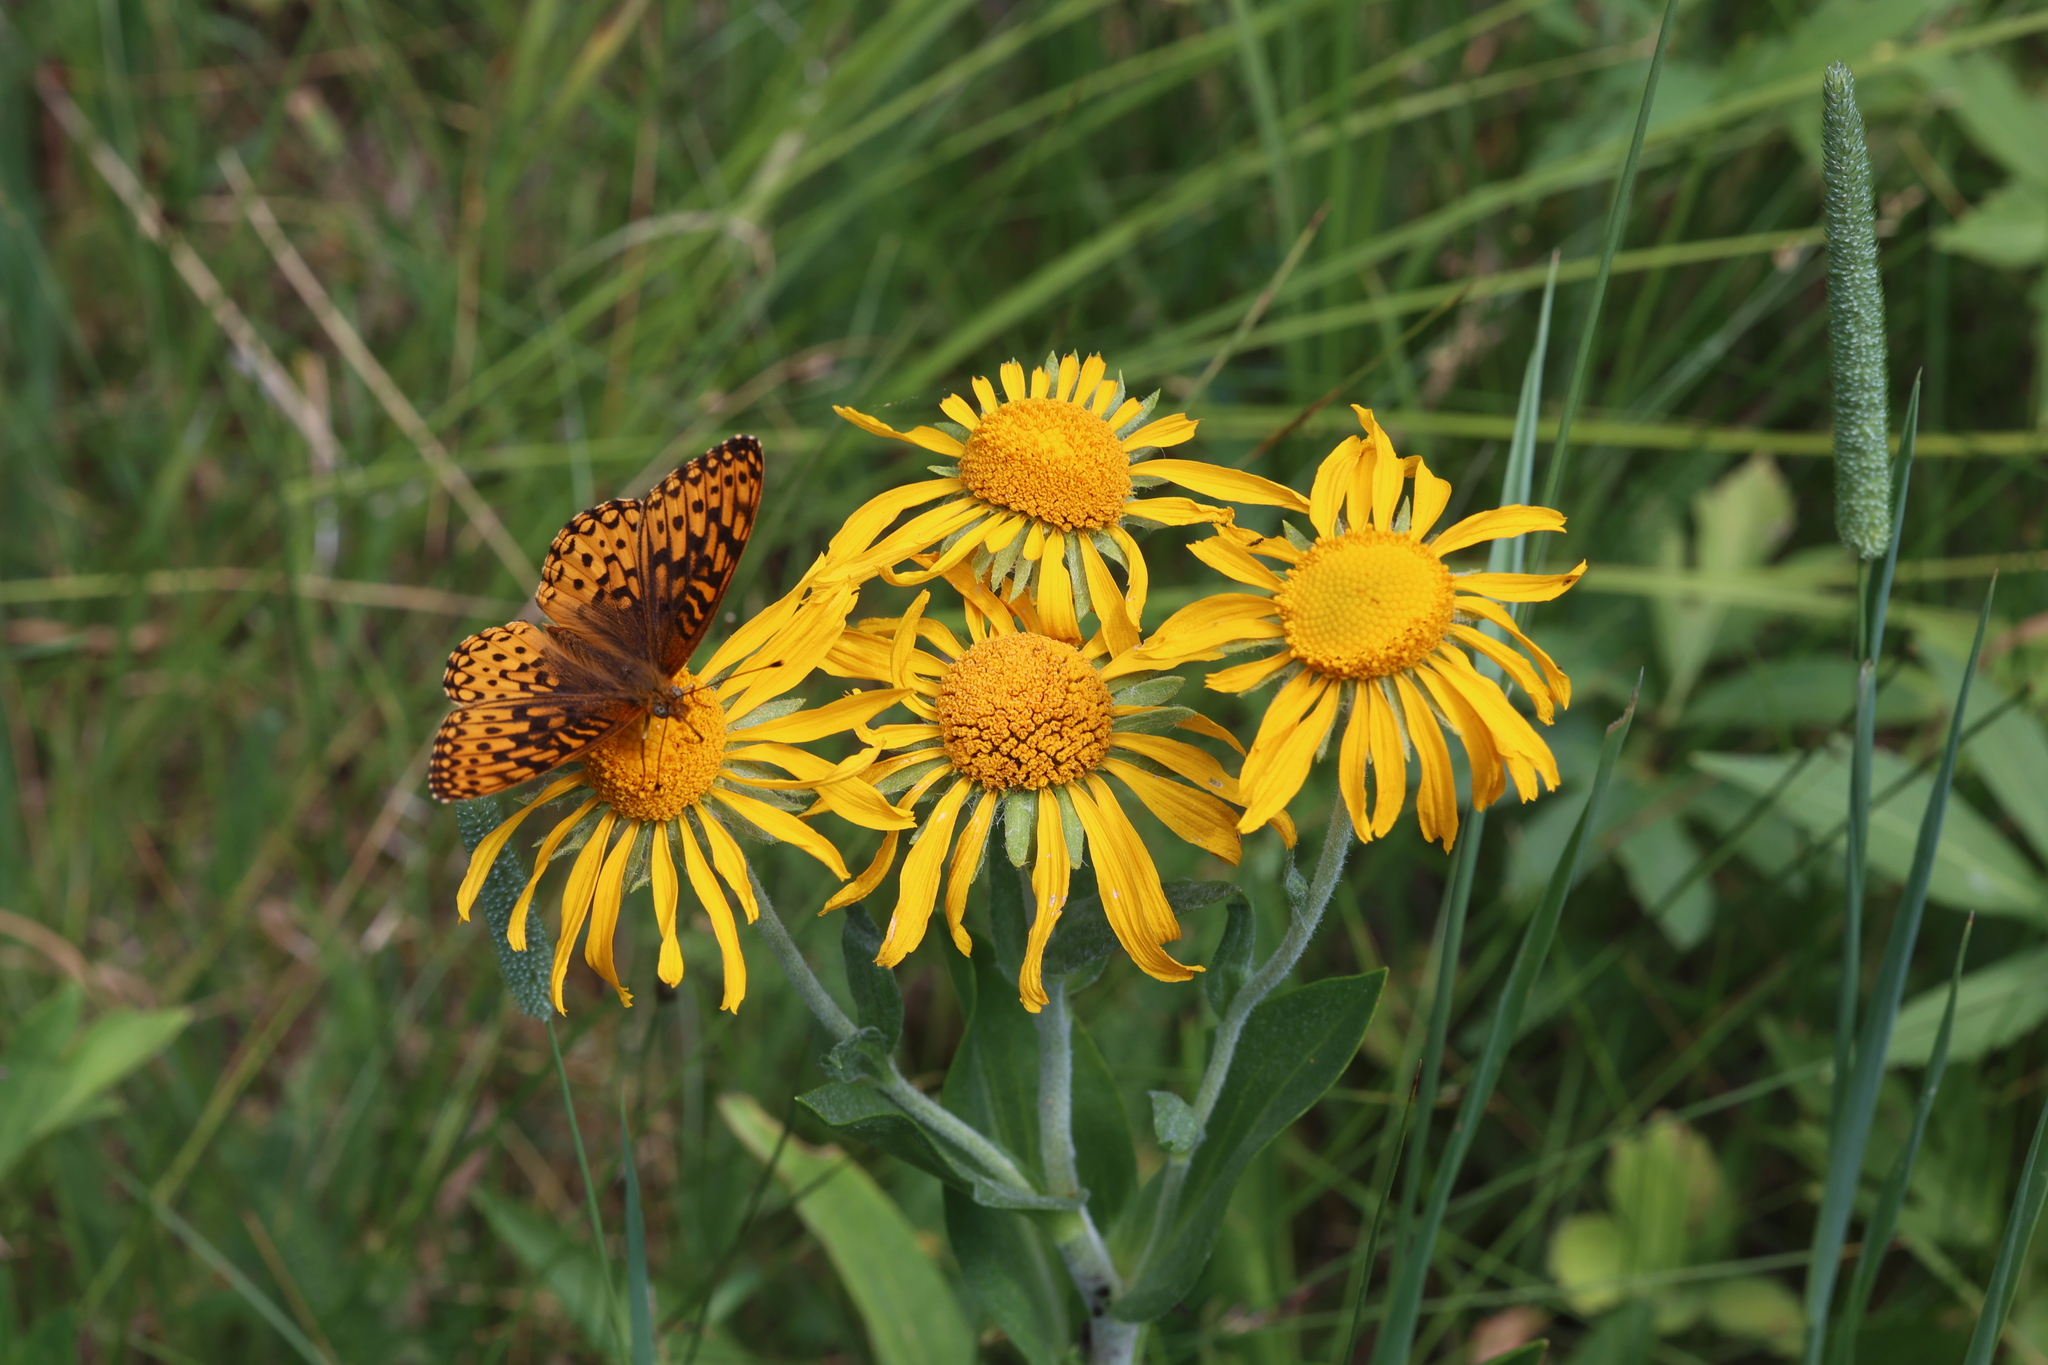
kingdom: Plantae
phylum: Tracheophyta
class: Magnoliopsida
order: Asterales
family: Asteraceae
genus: Hymenoxys
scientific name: Hymenoxys hoopesii
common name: Orange-sneezeweed
